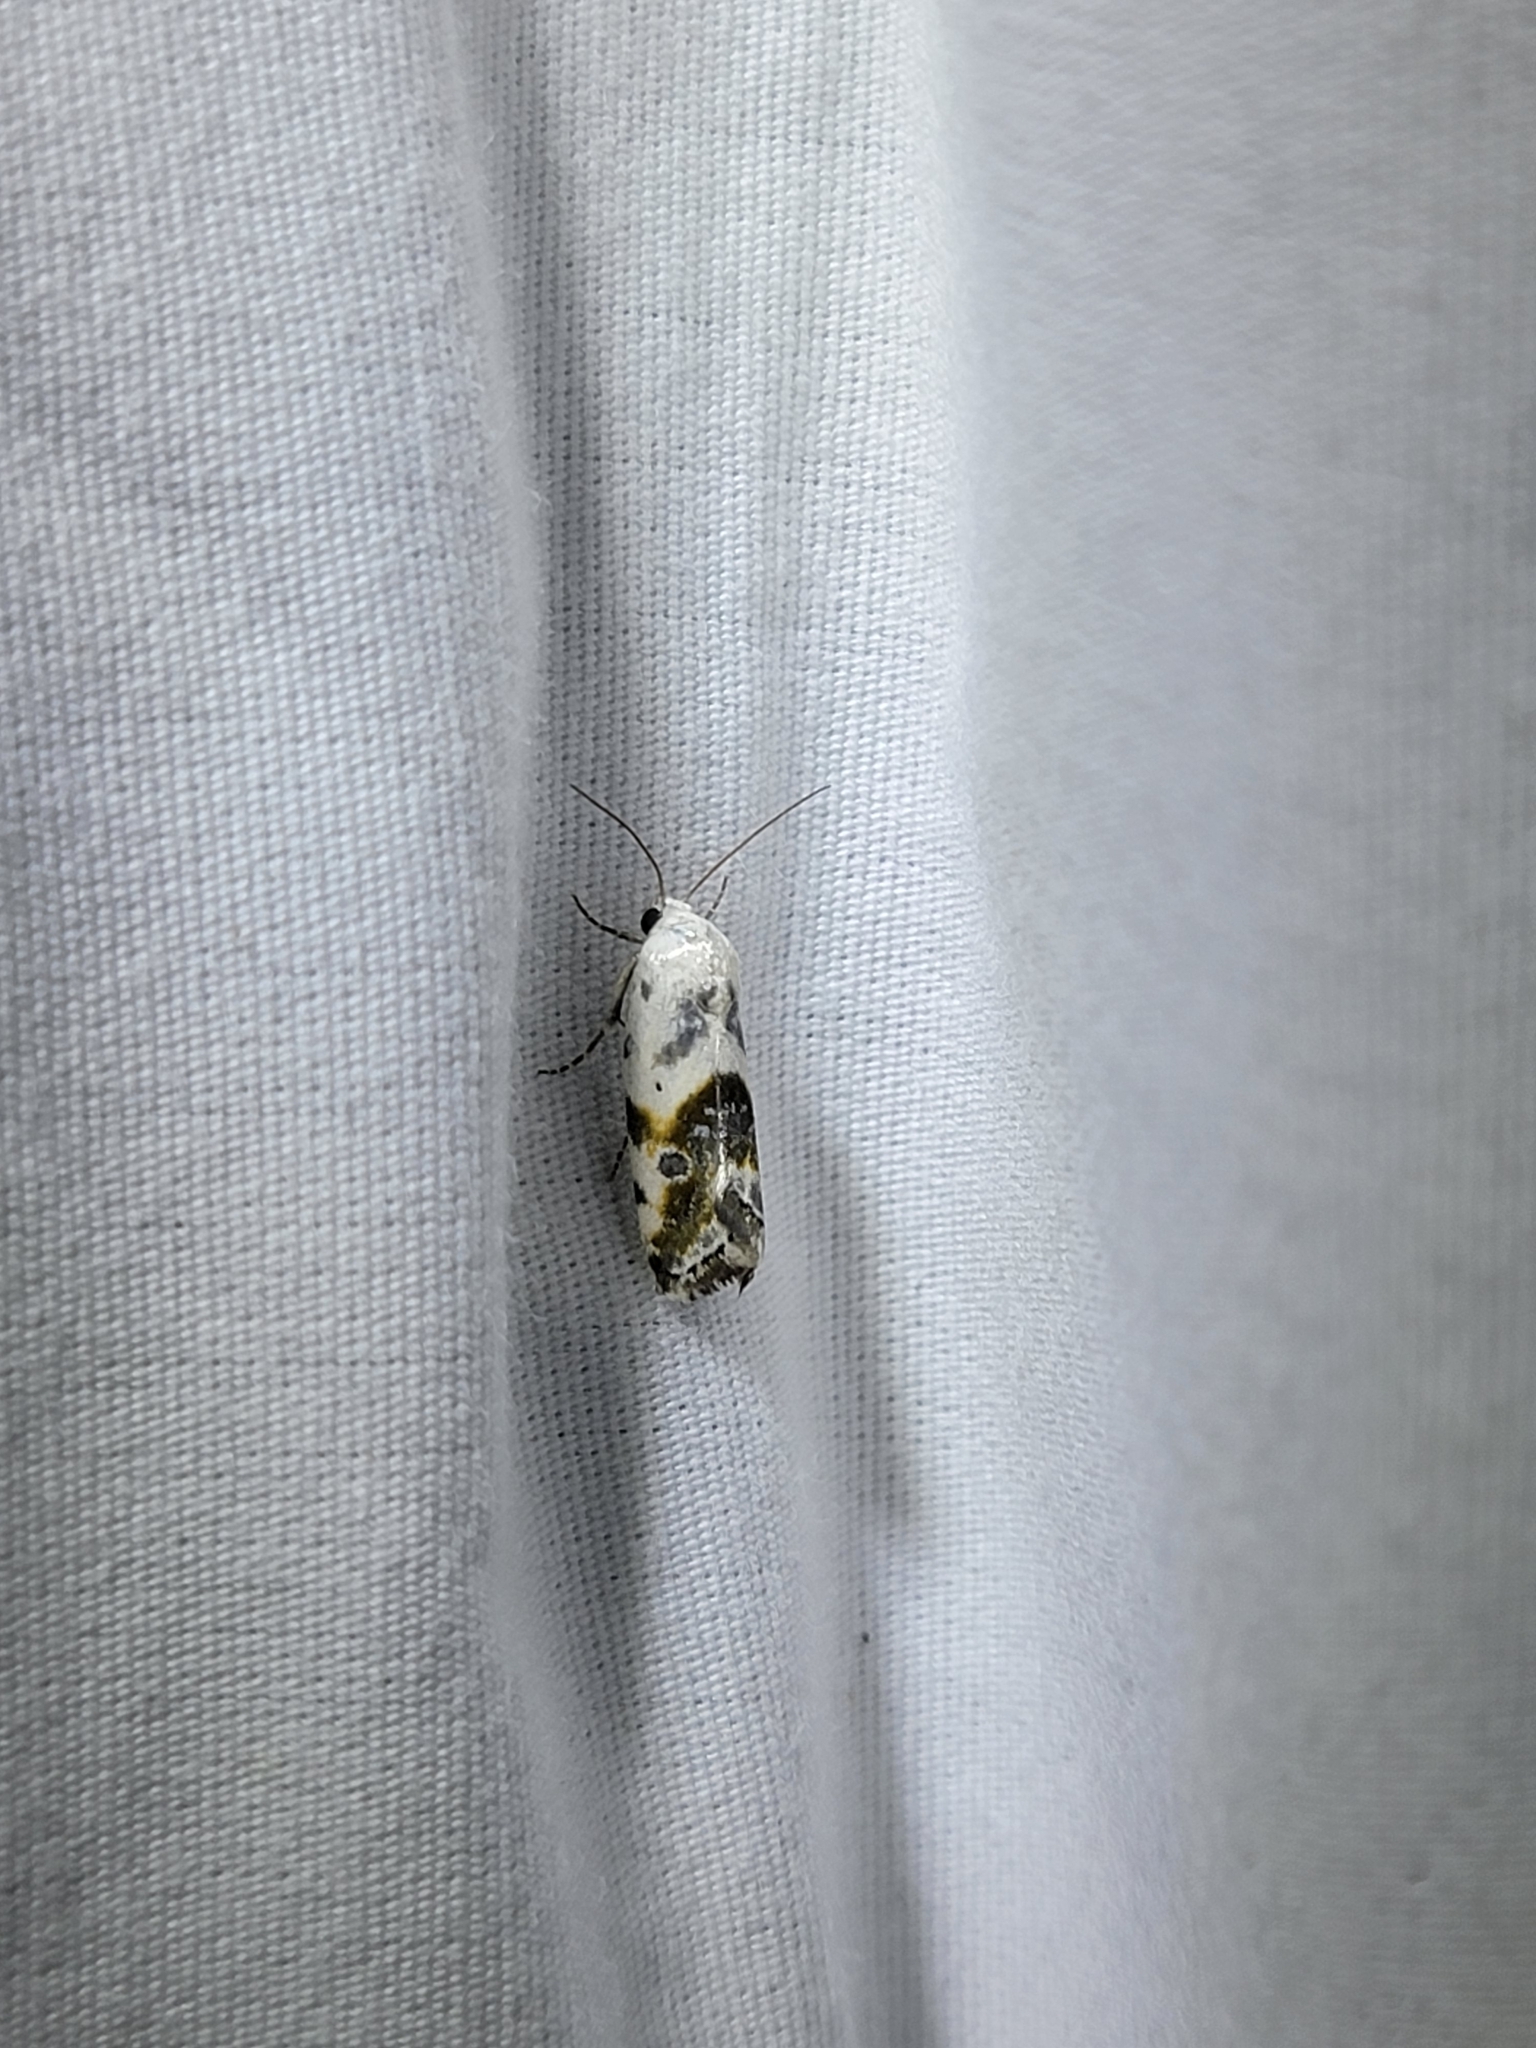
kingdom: Animalia
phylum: Arthropoda
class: Insecta
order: Lepidoptera
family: Noctuidae
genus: Acontia
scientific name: Acontia candefacta
